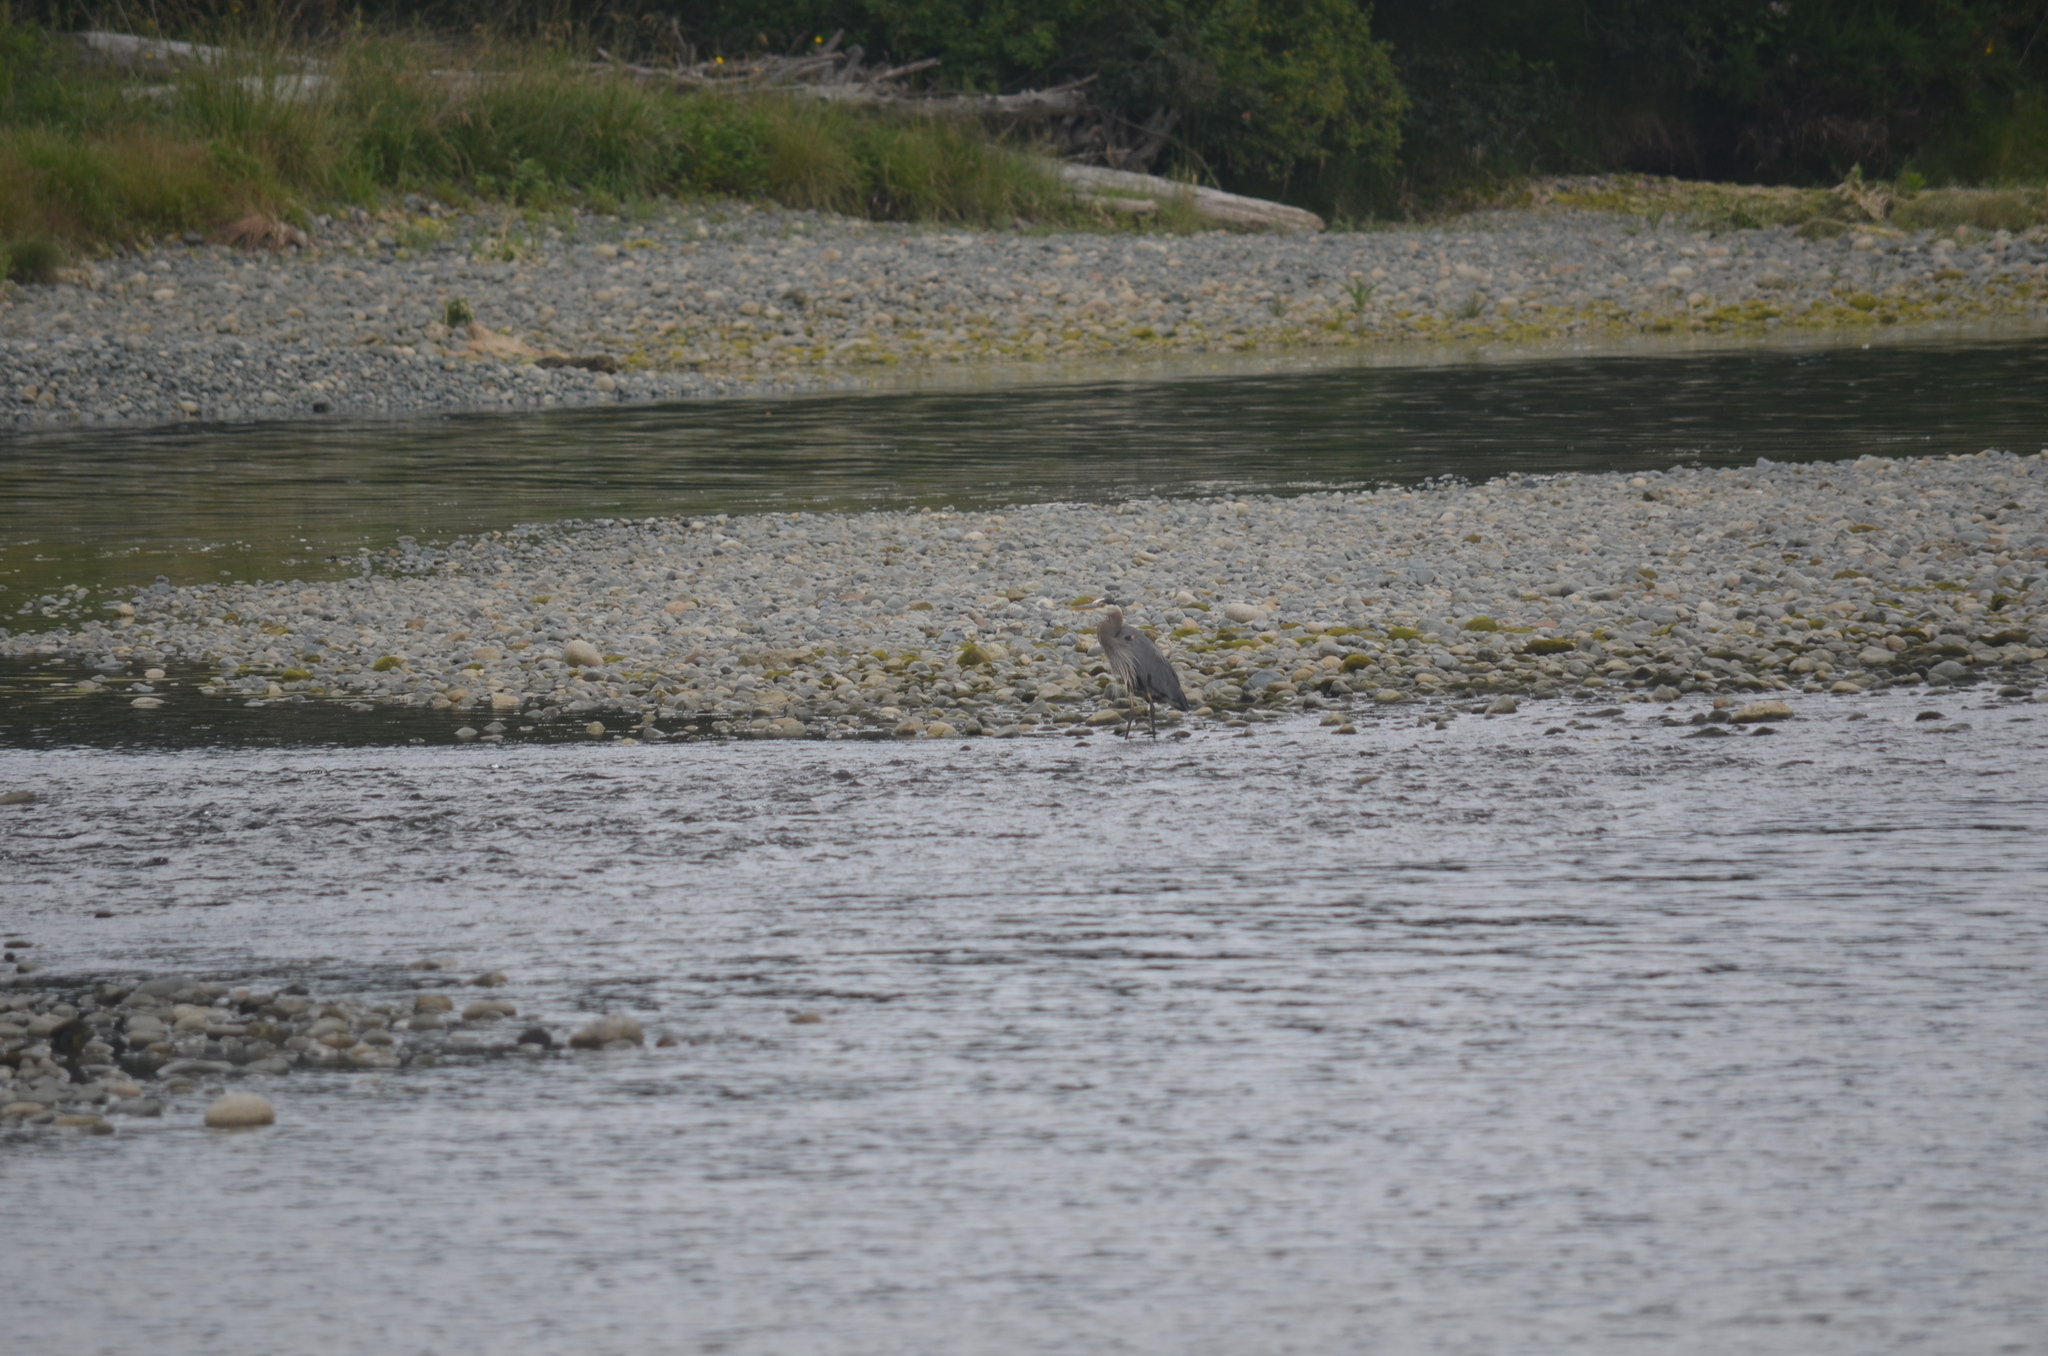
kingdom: Animalia
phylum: Chordata
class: Aves
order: Pelecaniformes
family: Ardeidae
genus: Ardea
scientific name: Ardea herodias
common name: Great blue heron
